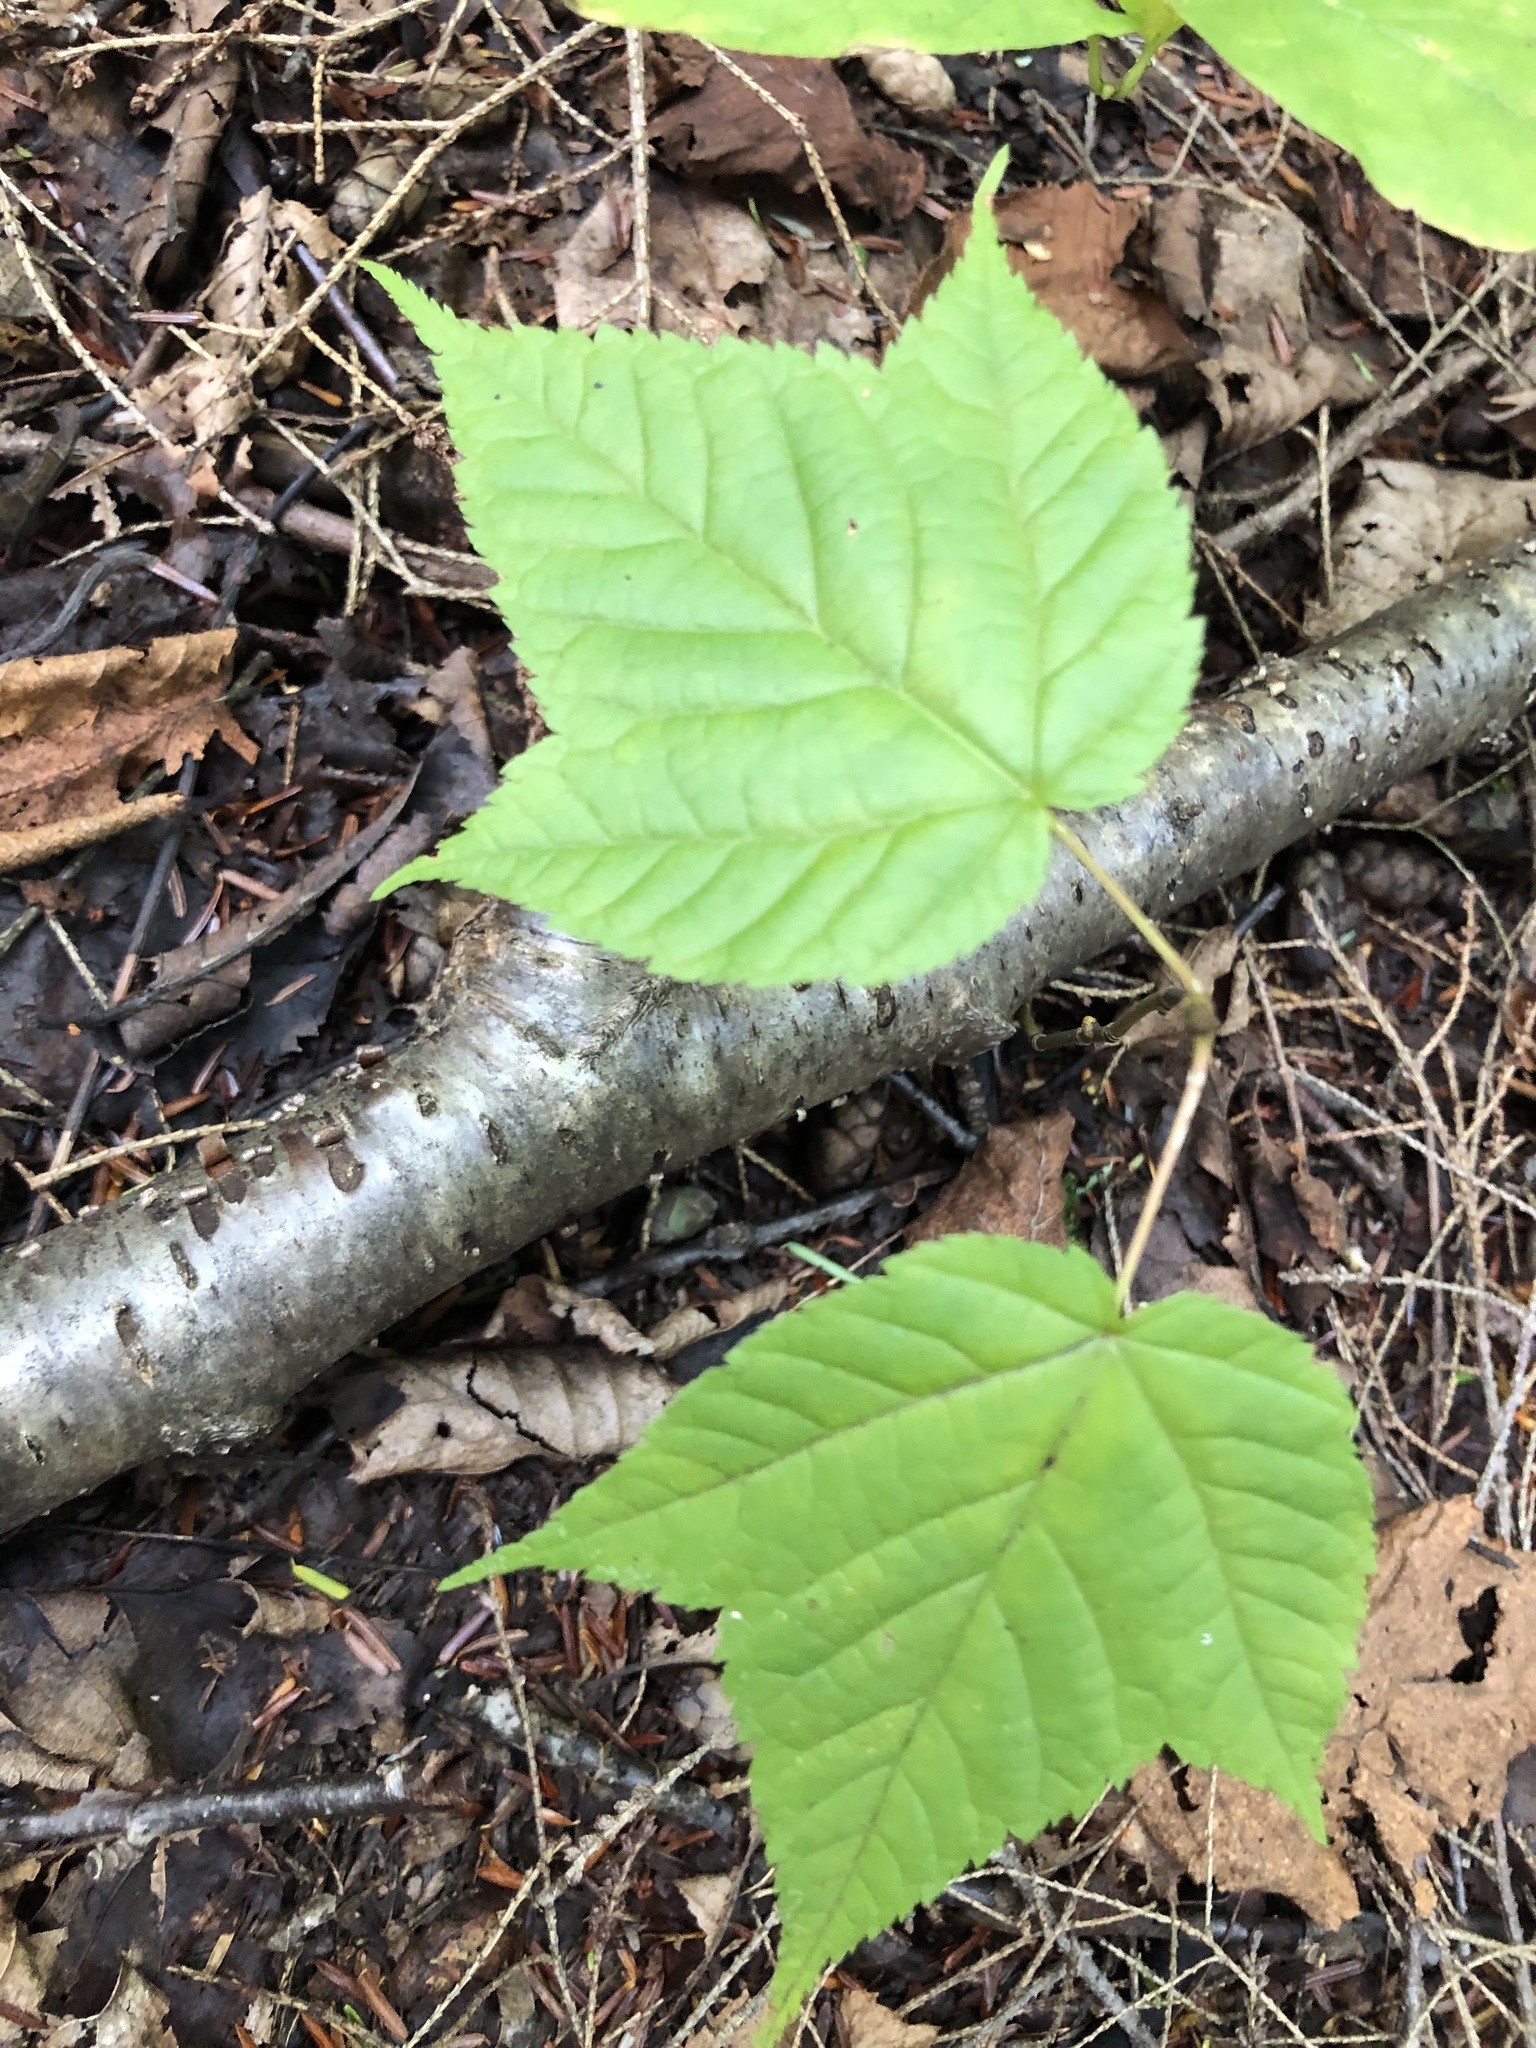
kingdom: Plantae
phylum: Tracheophyta
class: Magnoliopsida
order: Sapindales
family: Sapindaceae
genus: Acer
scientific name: Acer pensylvanicum
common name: Moosewood
